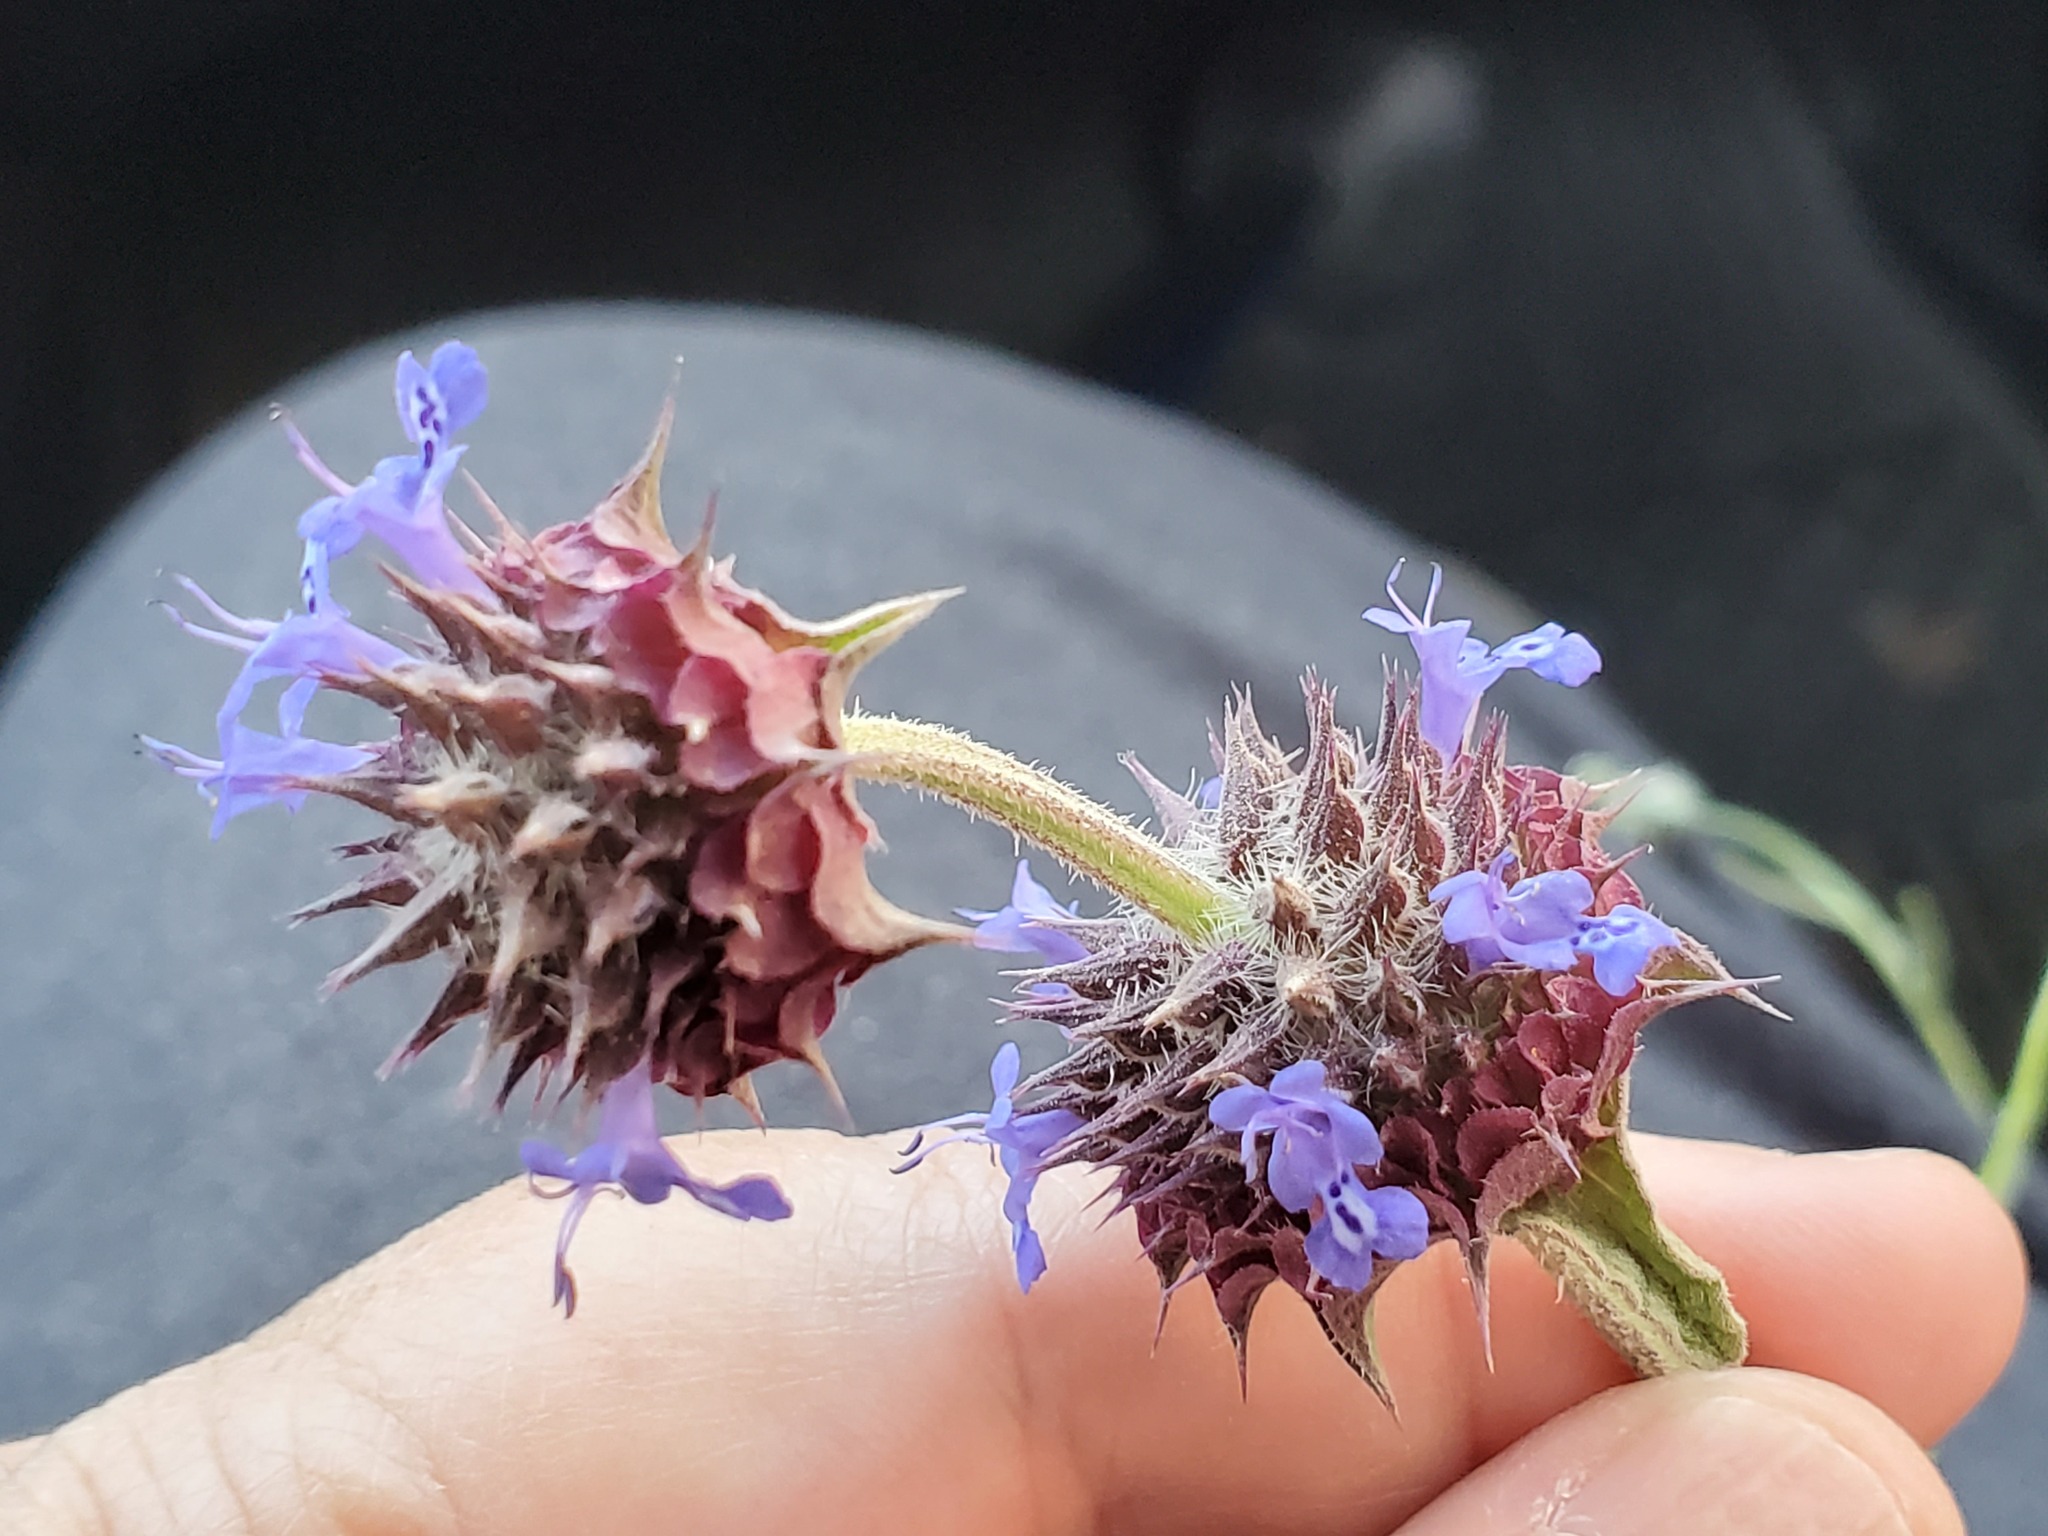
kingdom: Plantae
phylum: Tracheophyta
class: Magnoliopsida
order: Lamiales
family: Lamiaceae
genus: Salvia
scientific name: Salvia columbariae
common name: Chia
